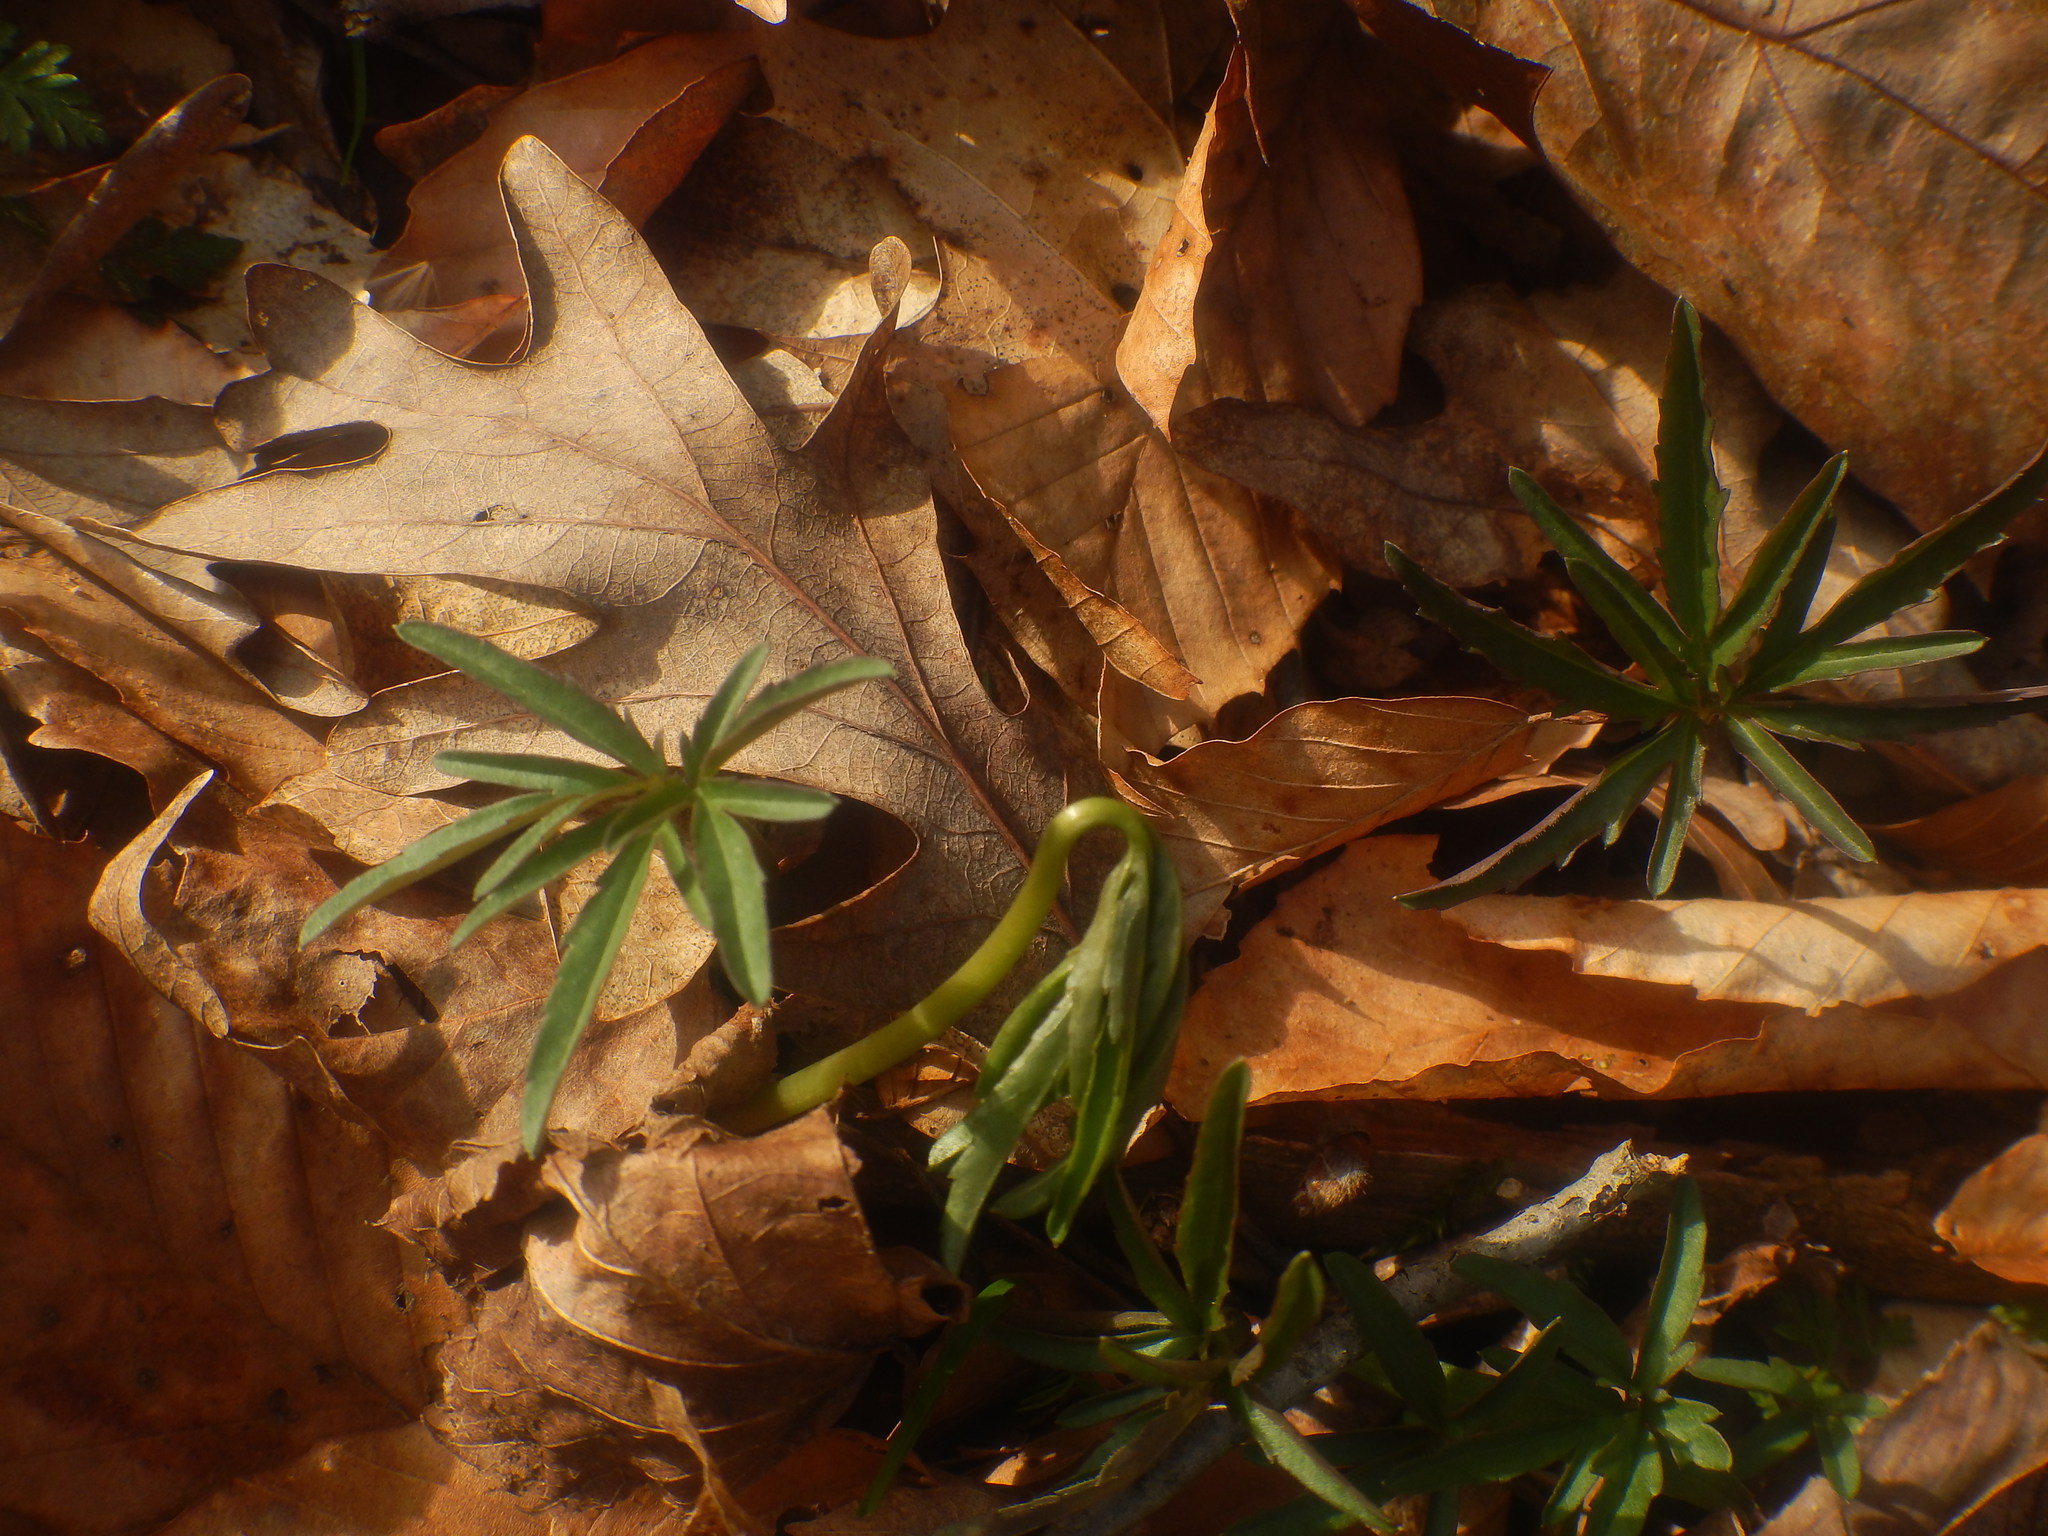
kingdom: Plantae
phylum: Tracheophyta
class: Magnoliopsida
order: Brassicales
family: Brassicaceae
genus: Cardamine
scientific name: Cardamine concatenata
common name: Cut-leaf toothcup
